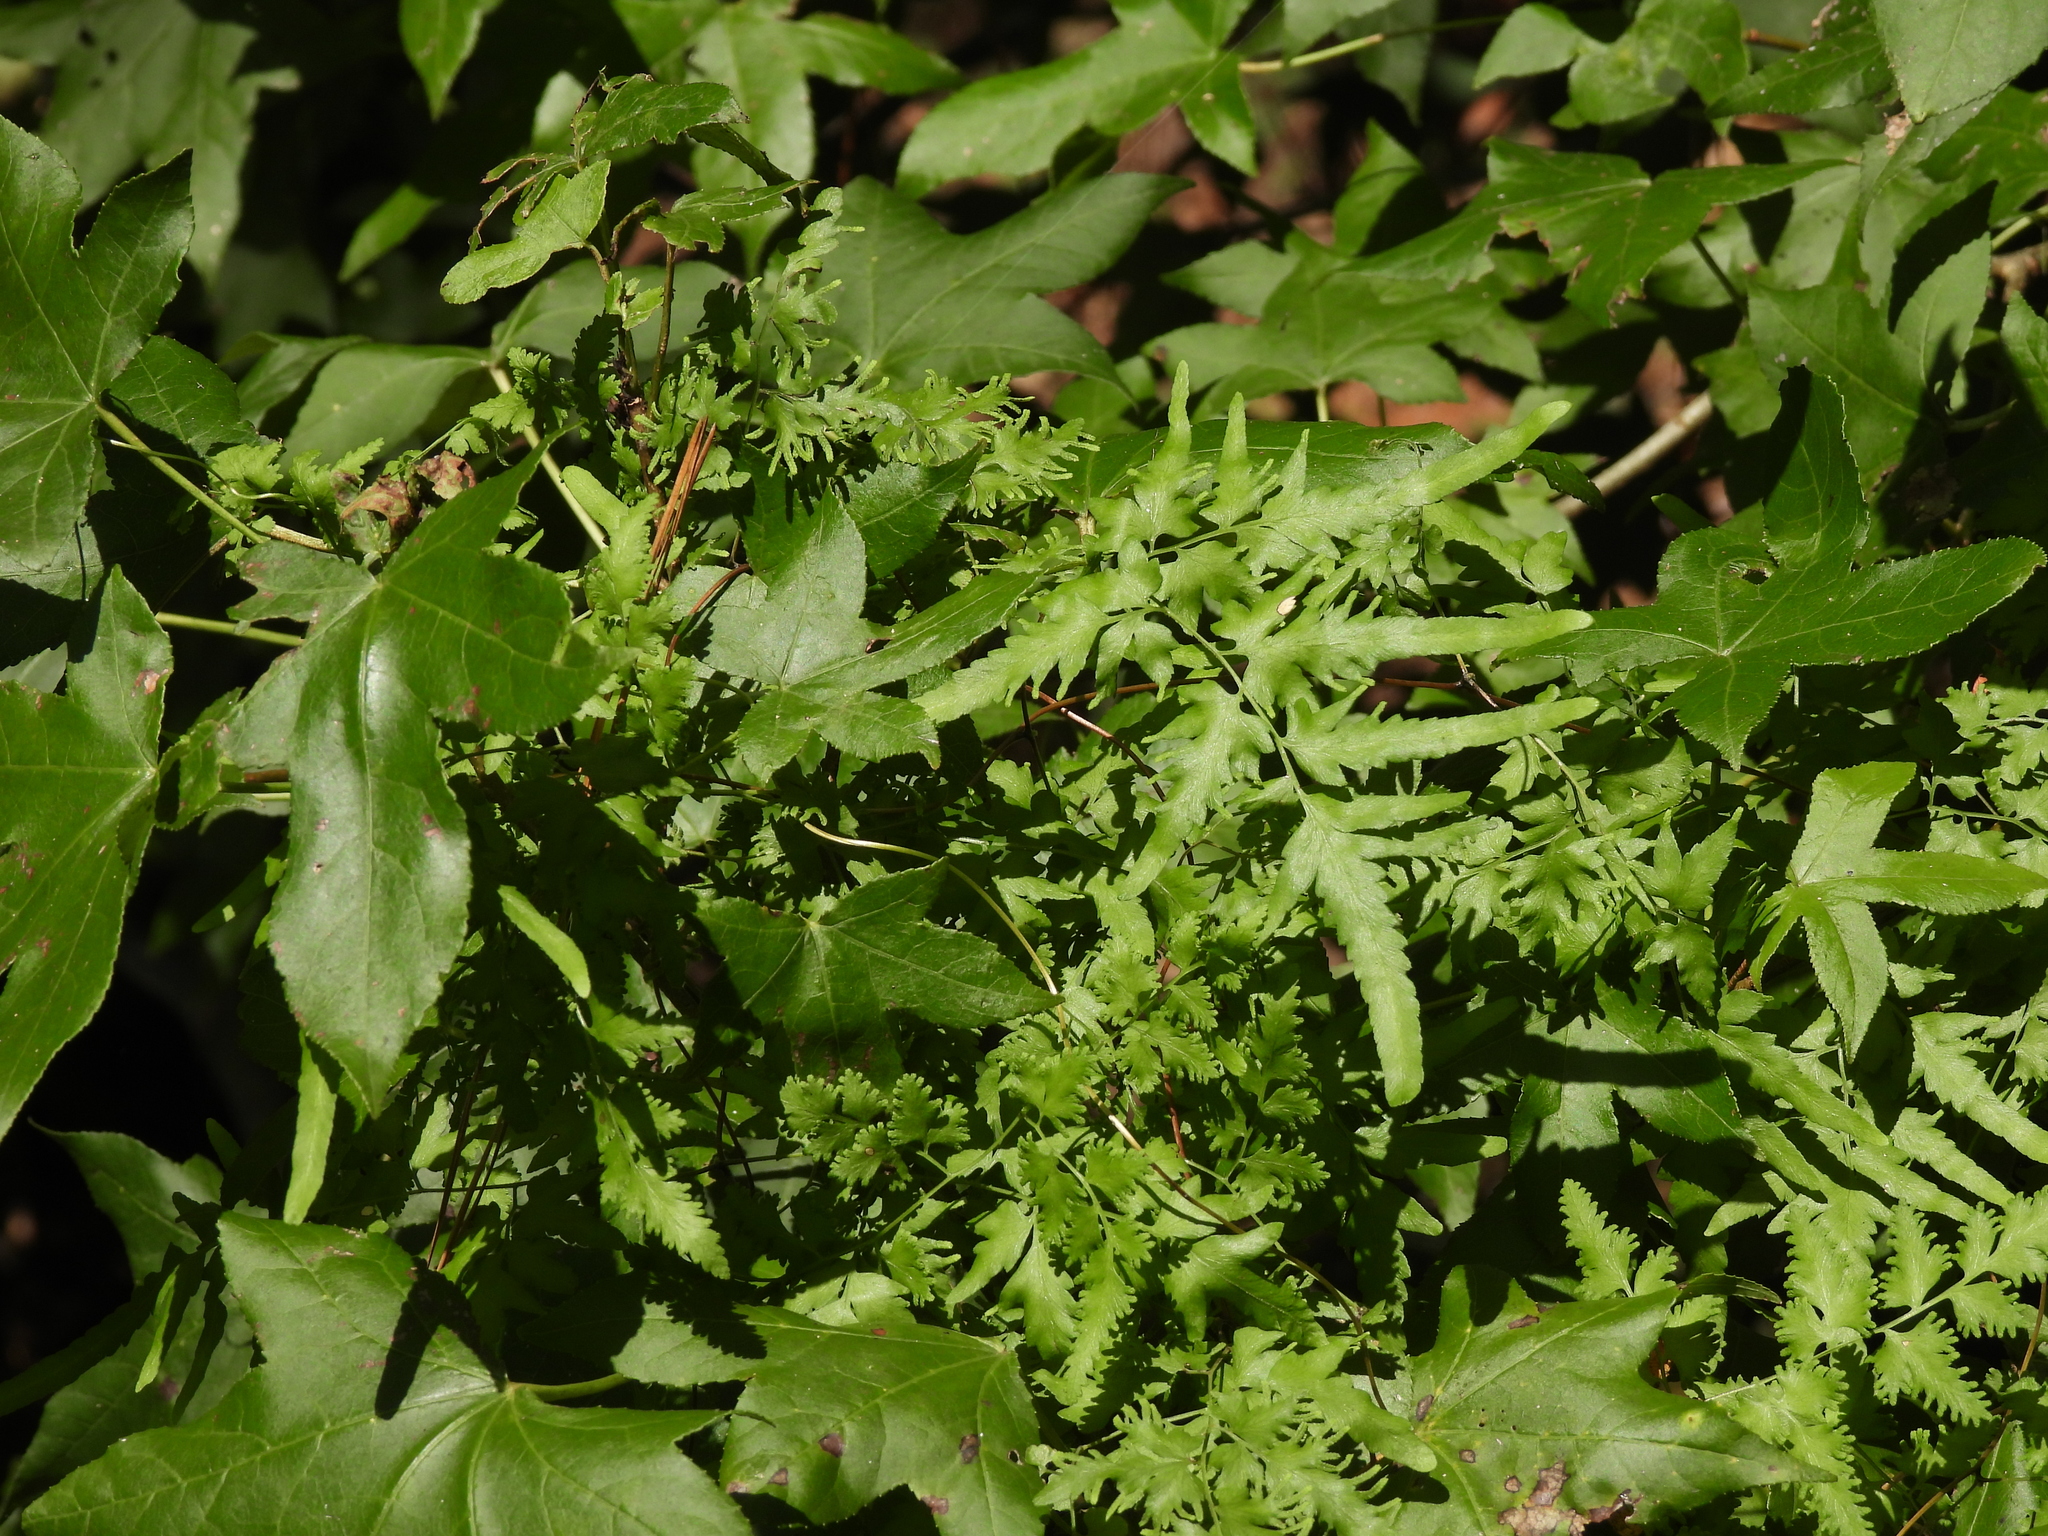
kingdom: Plantae
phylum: Tracheophyta
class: Polypodiopsida
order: Schizaeales
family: Lygodiaceae
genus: Lygodium
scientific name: Lygodium japonicum
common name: Japanese climbing fern
